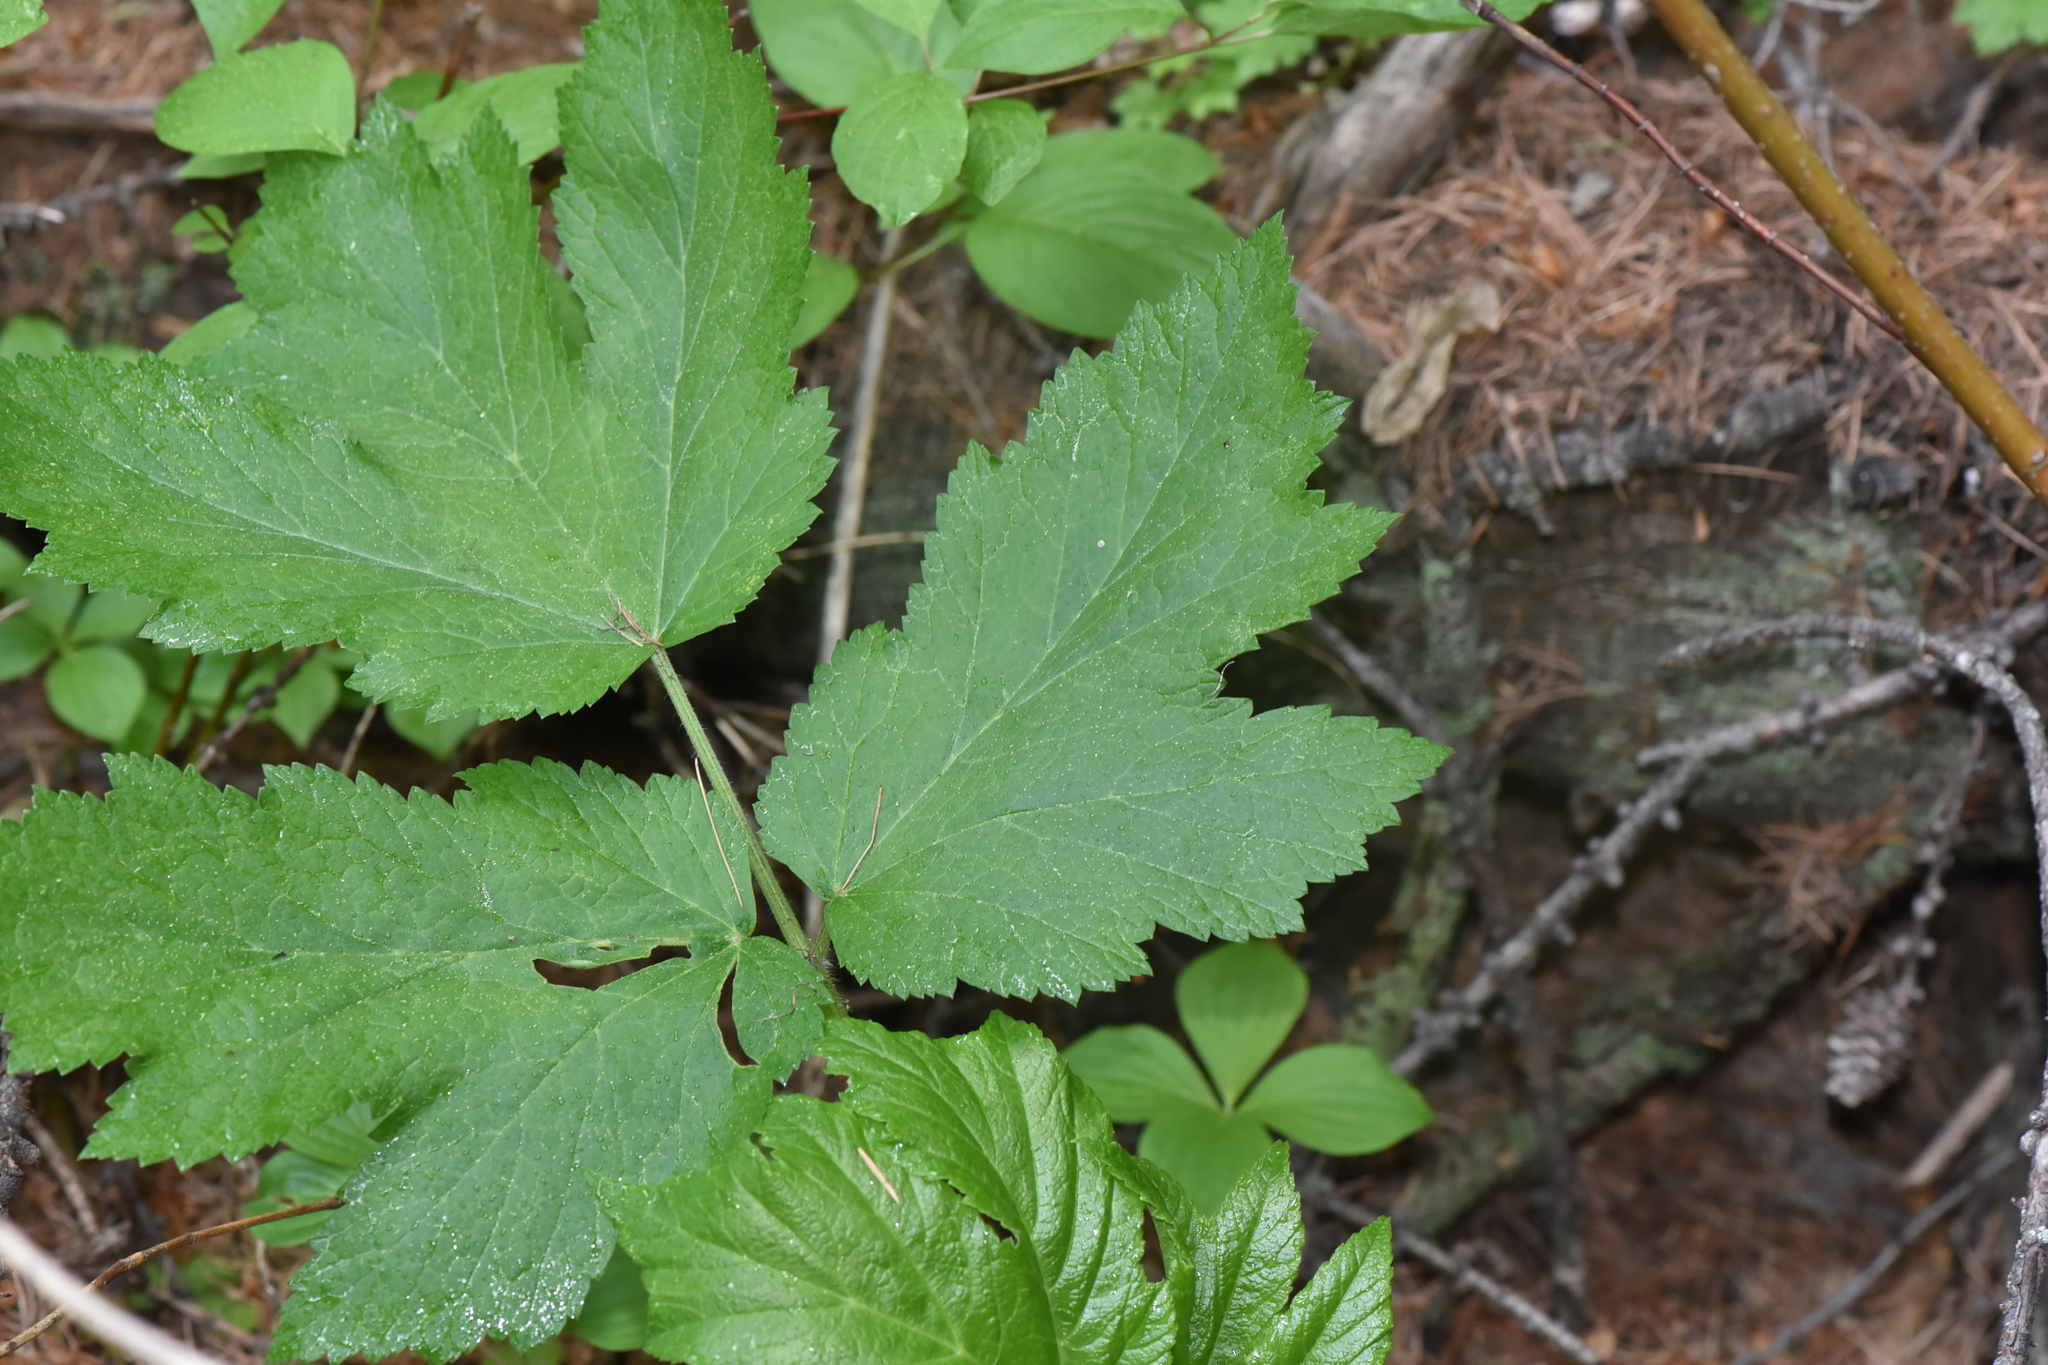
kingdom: Plantae
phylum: Tracheophyta
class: Magnoliopsida
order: Apiales
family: Apiaceae
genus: Heracleum
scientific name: Heracleum maximum
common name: American cow parsnip
